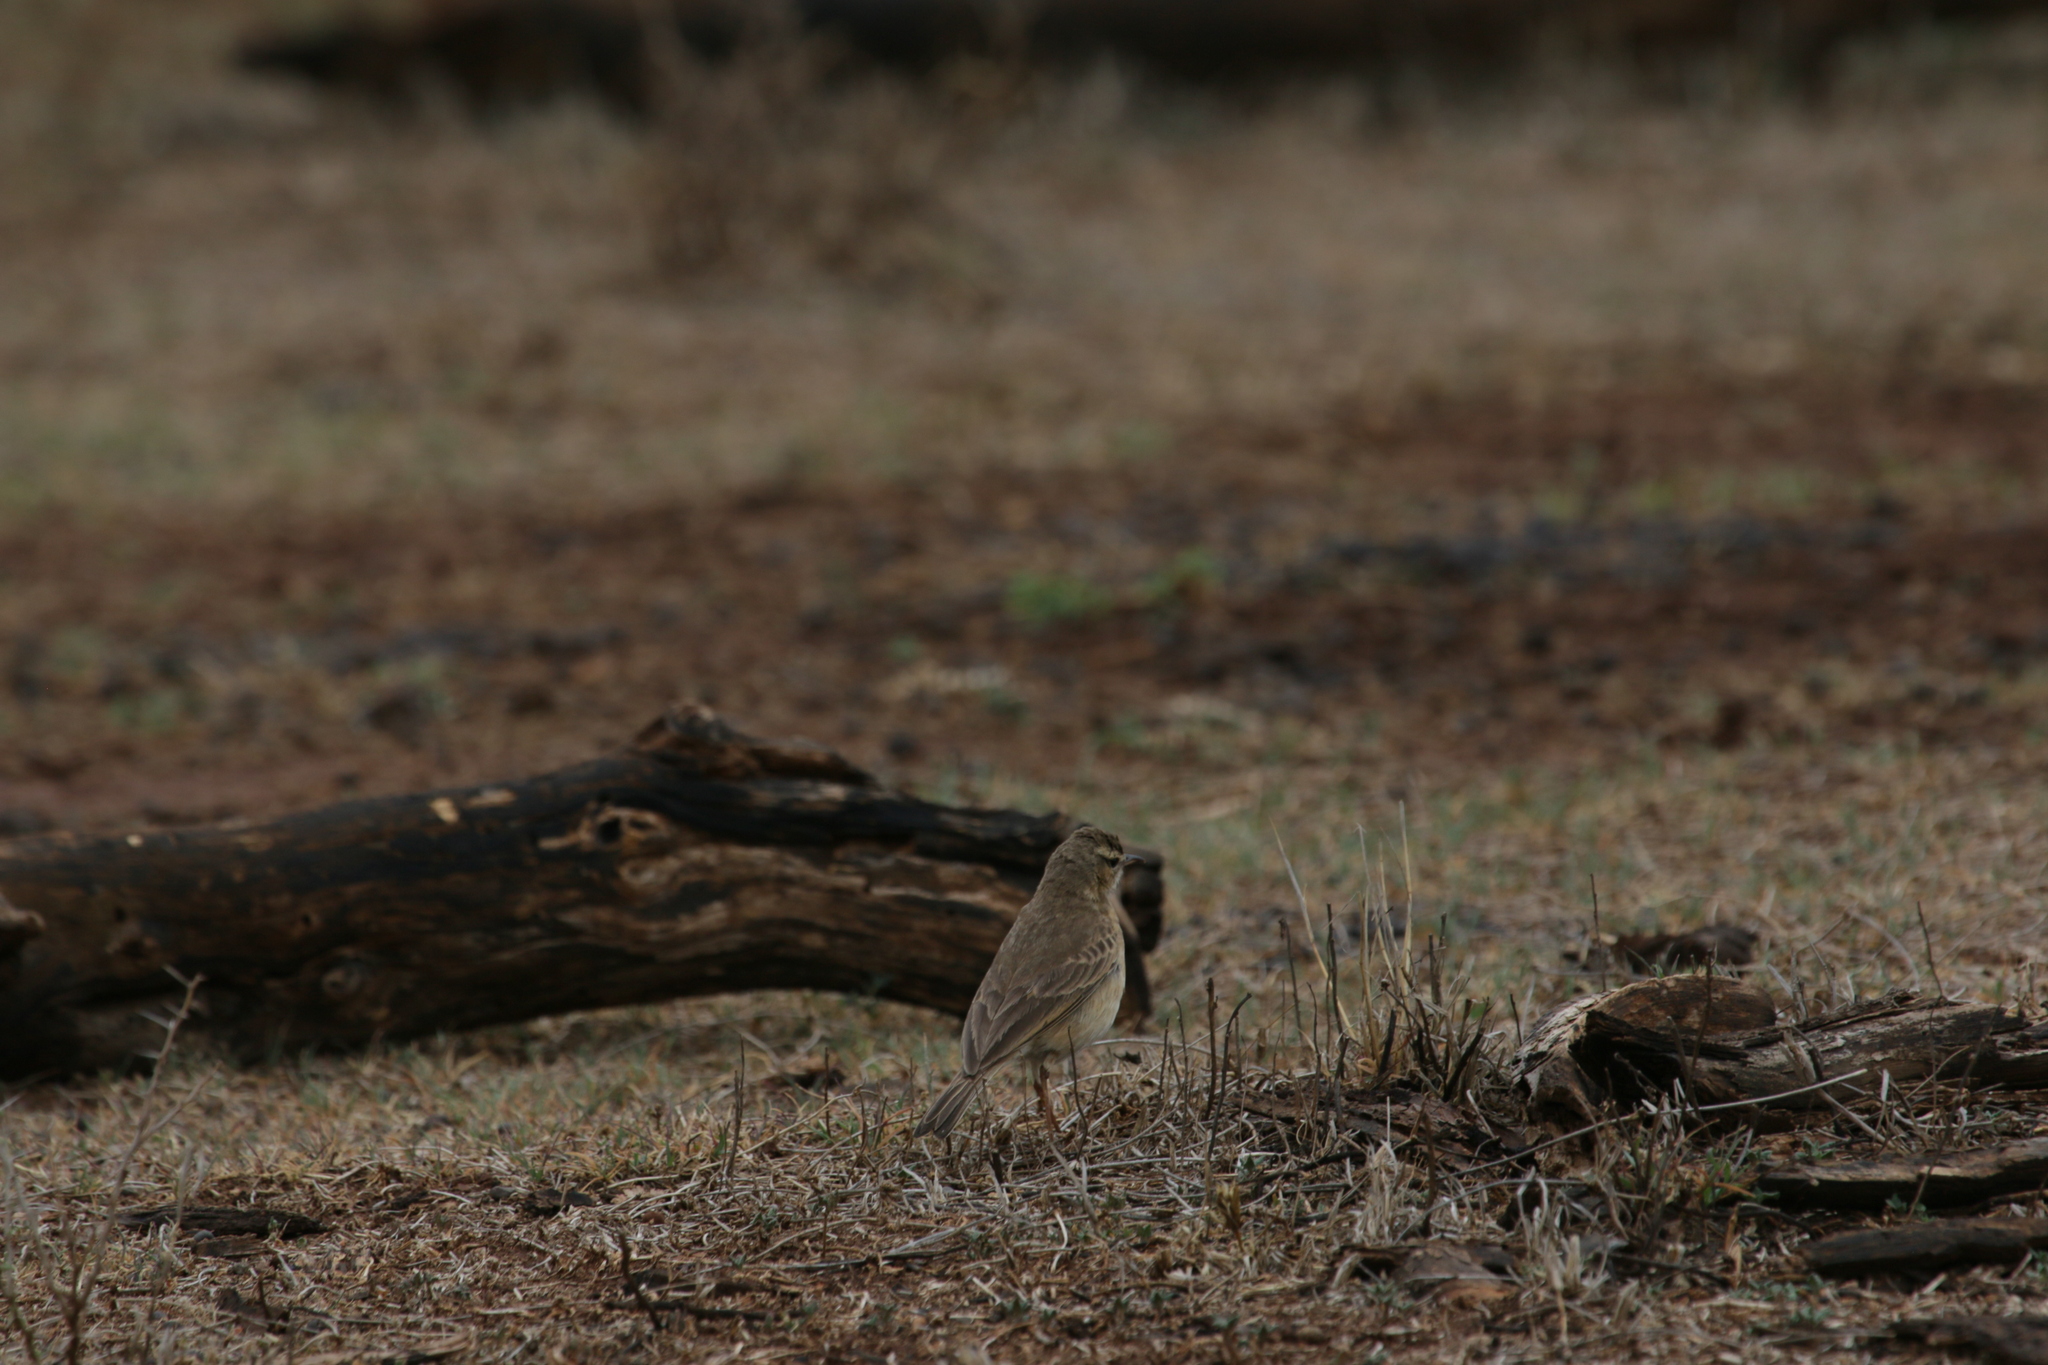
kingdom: Animalia
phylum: Chordata
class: Aves
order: Passeriformes
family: Motacillidae
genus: Anthus
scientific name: Anthus vaalensis
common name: Buffy pipit
